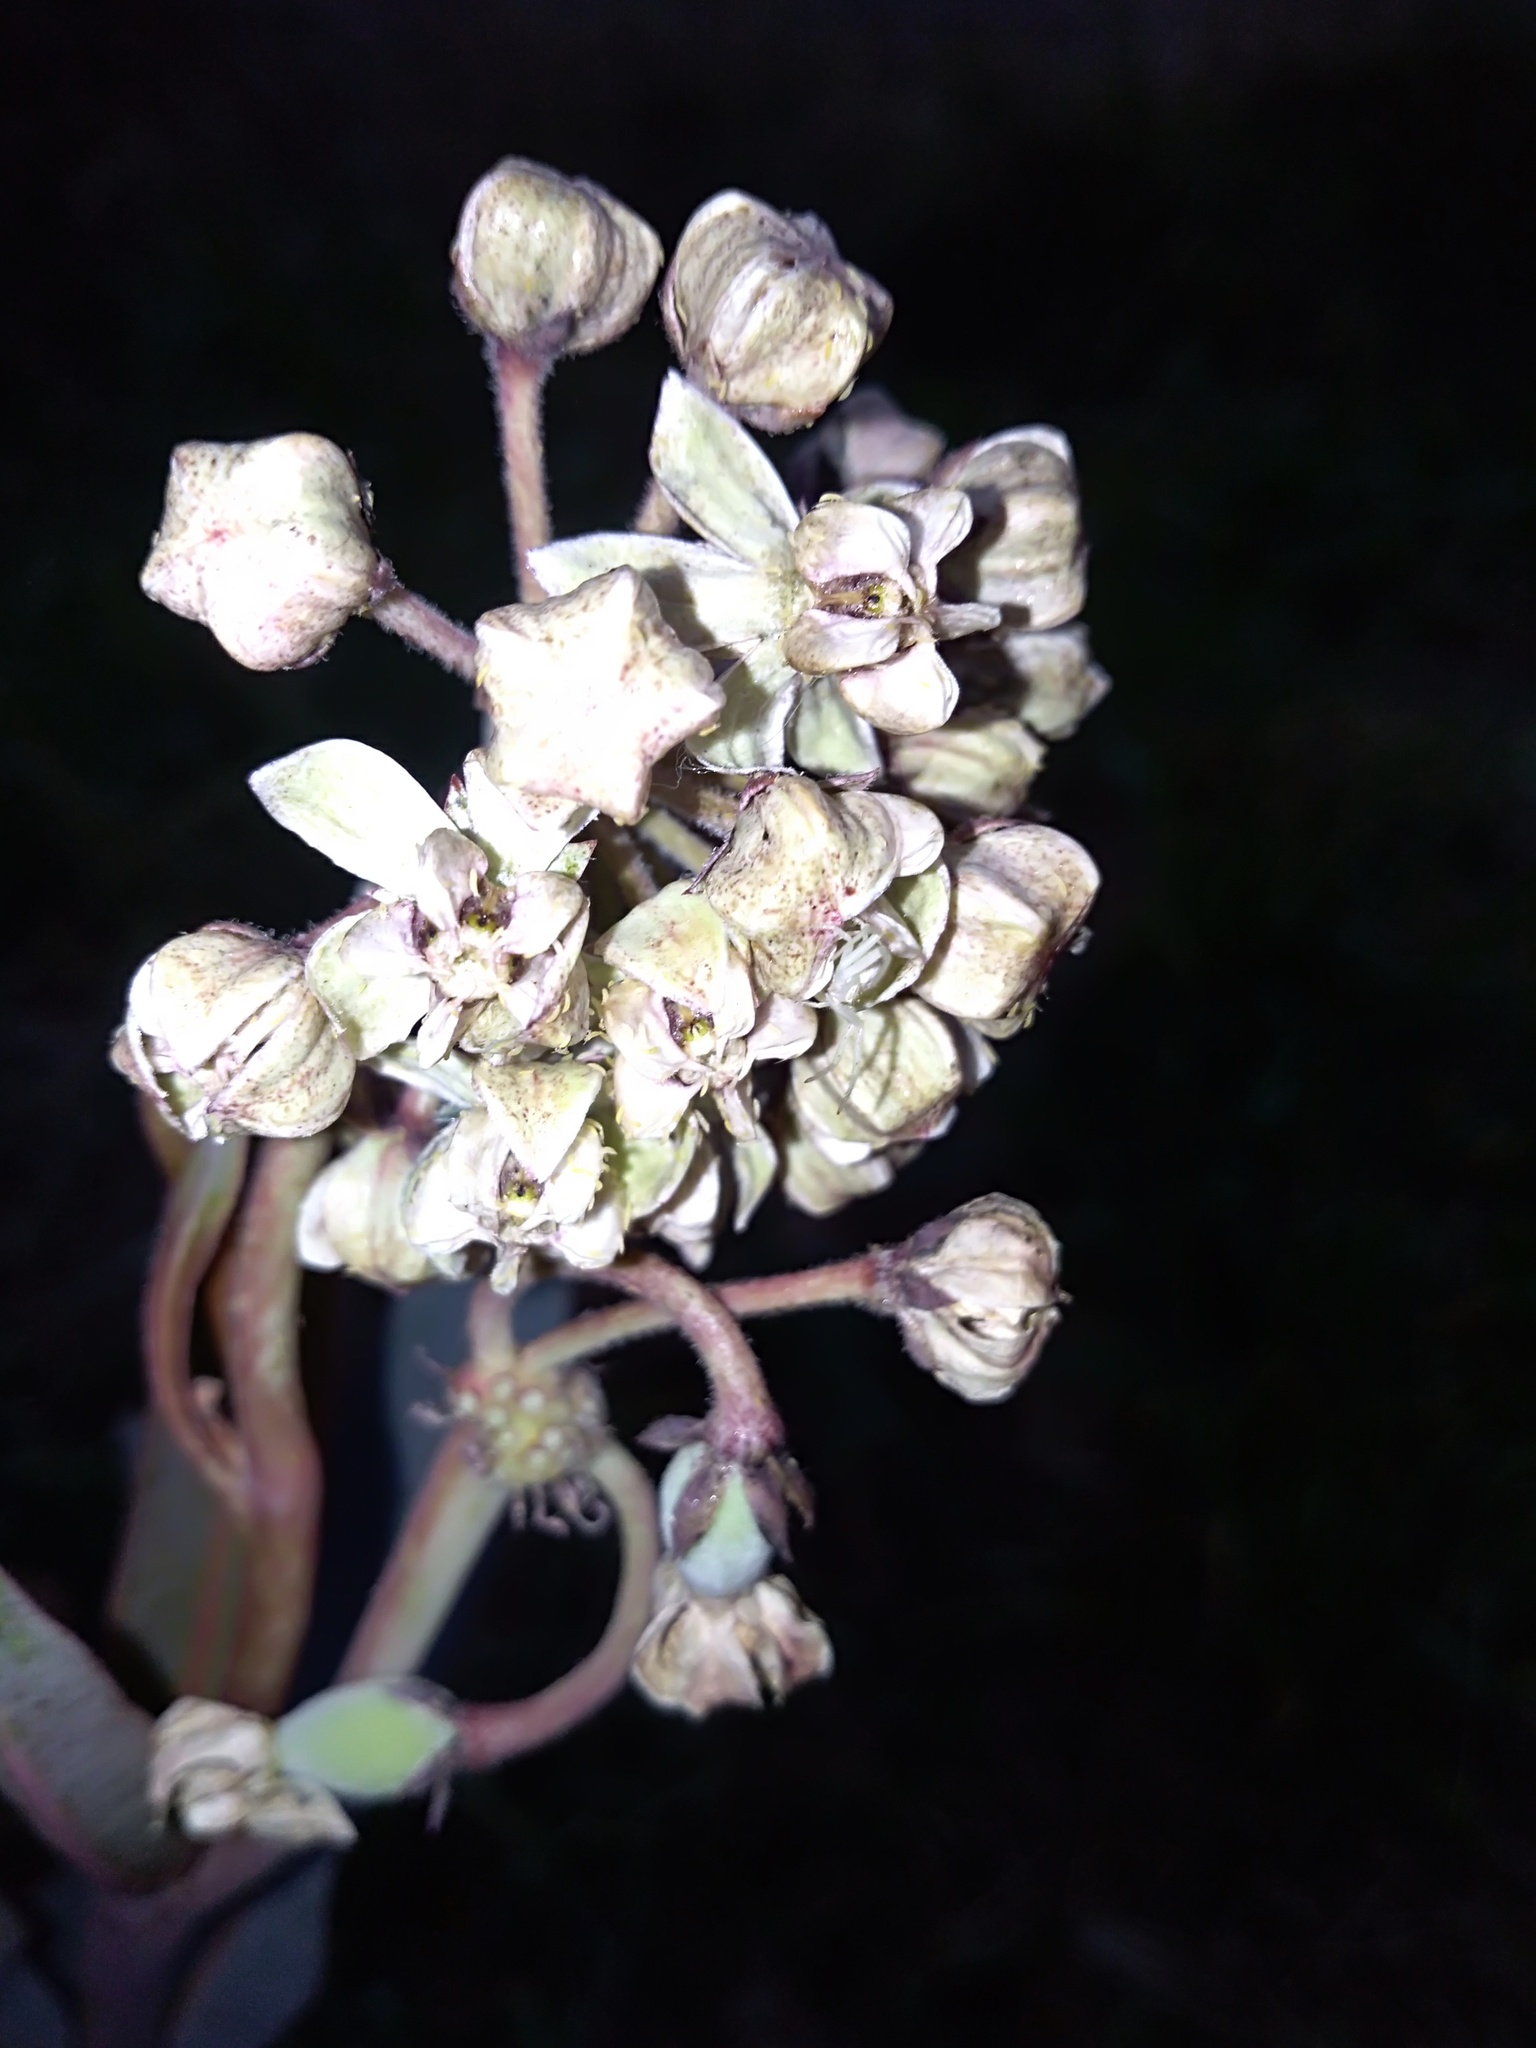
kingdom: Plantae
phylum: Tracheophyta
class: Magnoliopsida
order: Gentianales
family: Apocynaceae
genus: Asclepias
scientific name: Asclepias glaucescens
